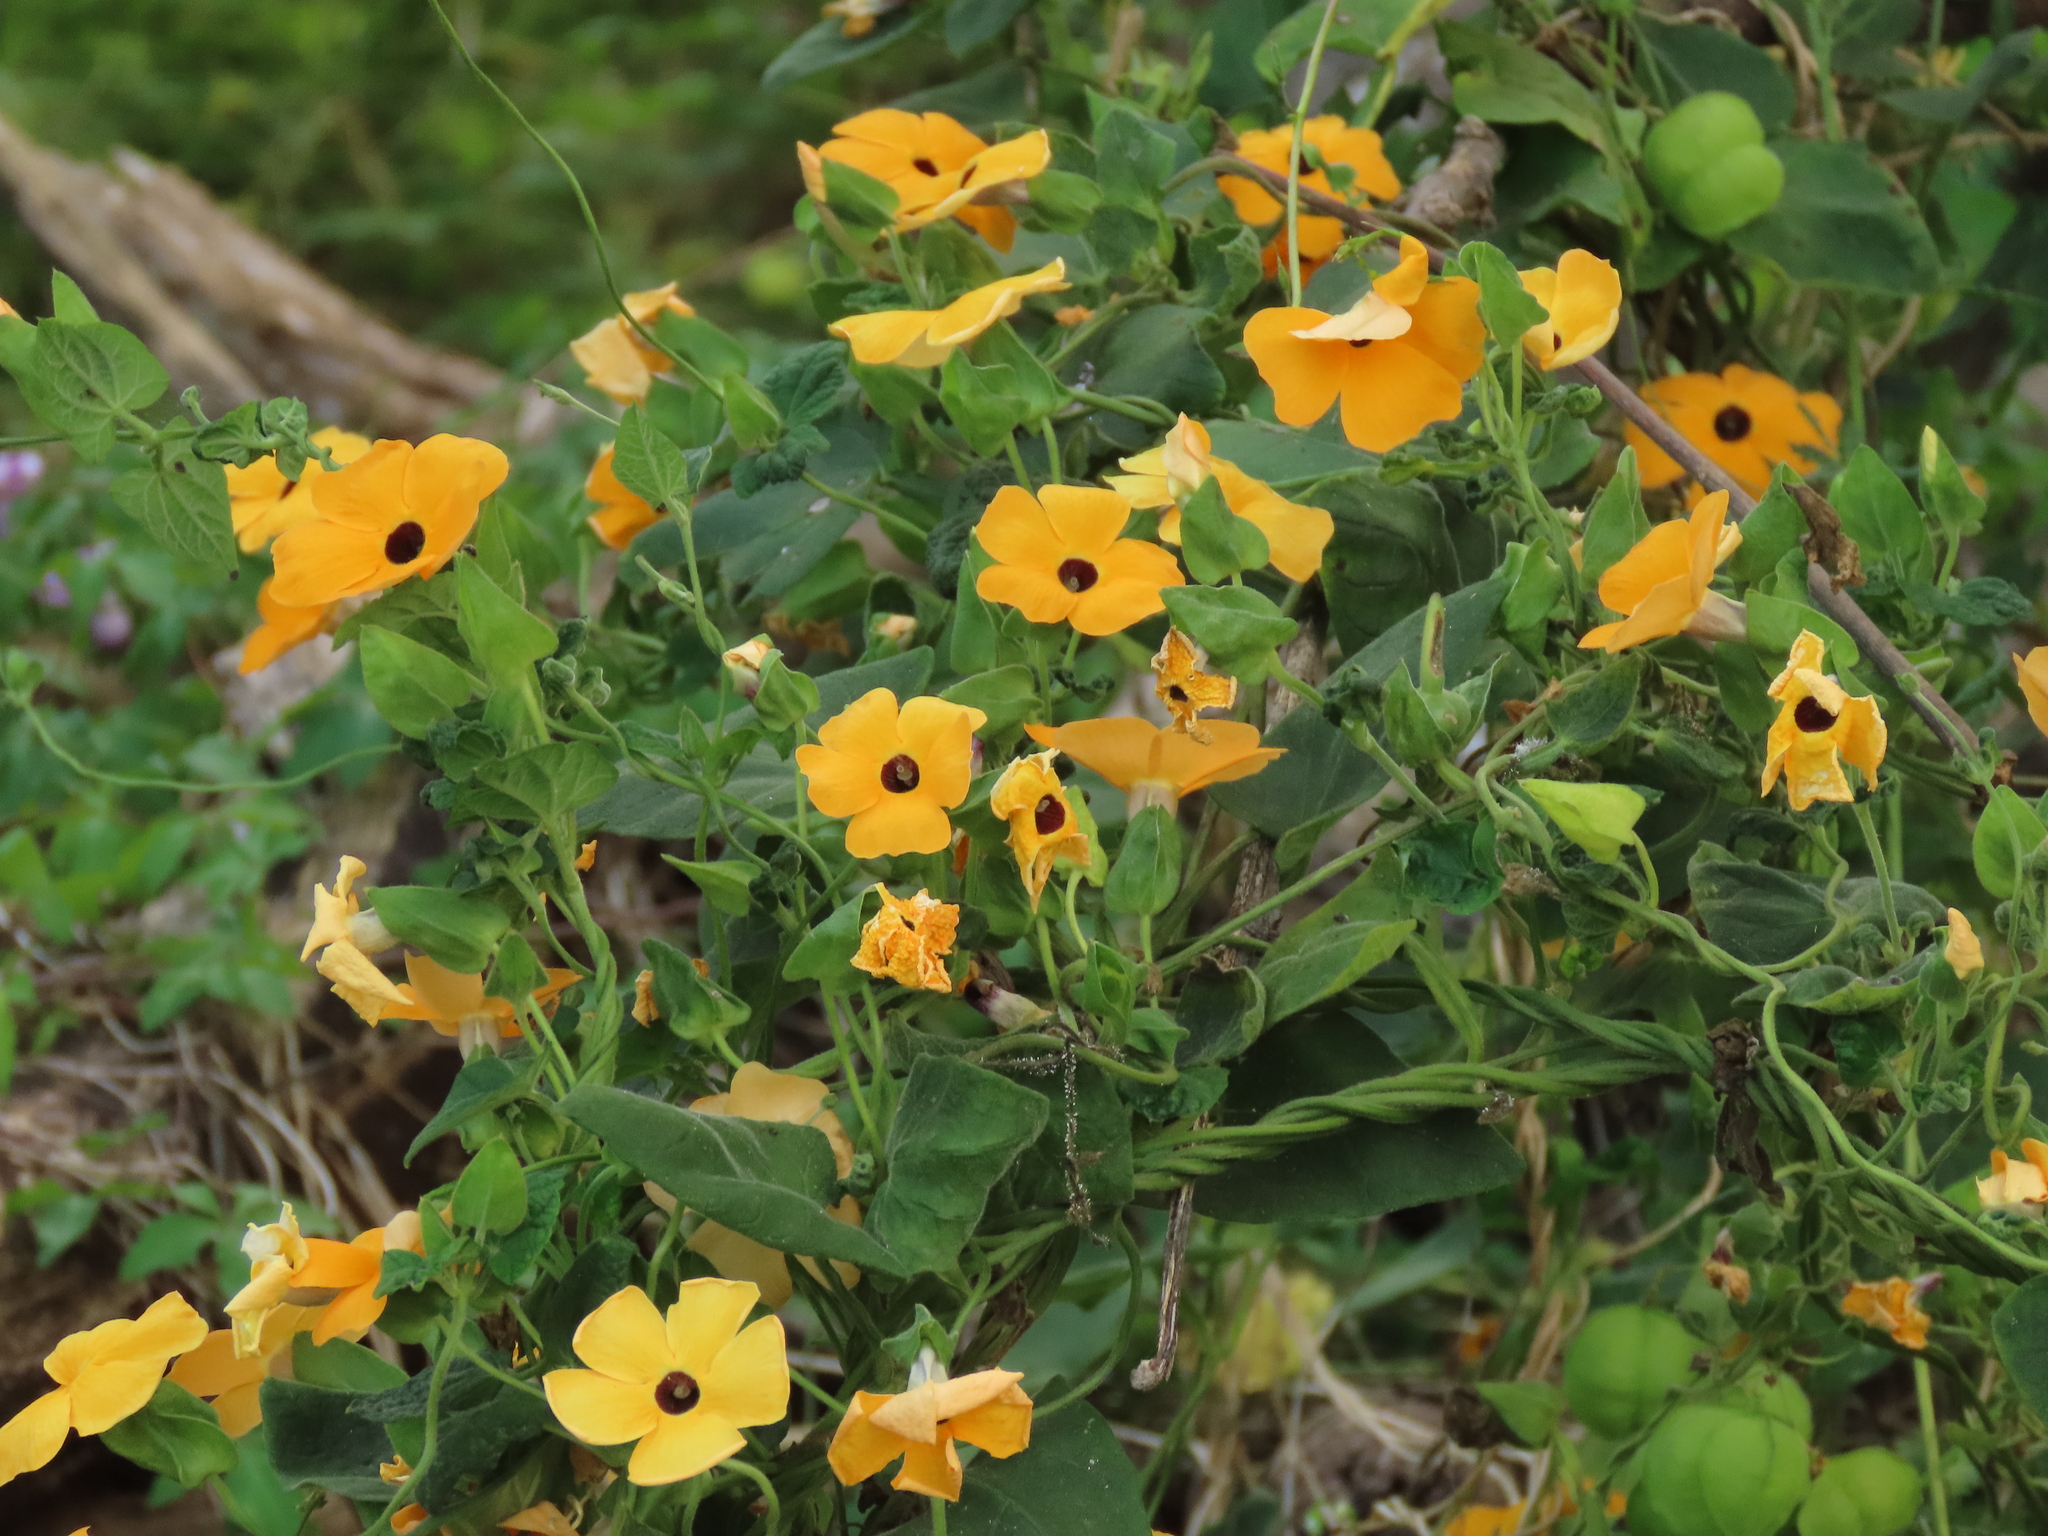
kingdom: Plantae
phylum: Tracheophyta
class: Magnoliopsida
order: Lamiales
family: Acanthaceae
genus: Thunbergia
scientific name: Thunbergia alata
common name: Blackeyed susan vine
